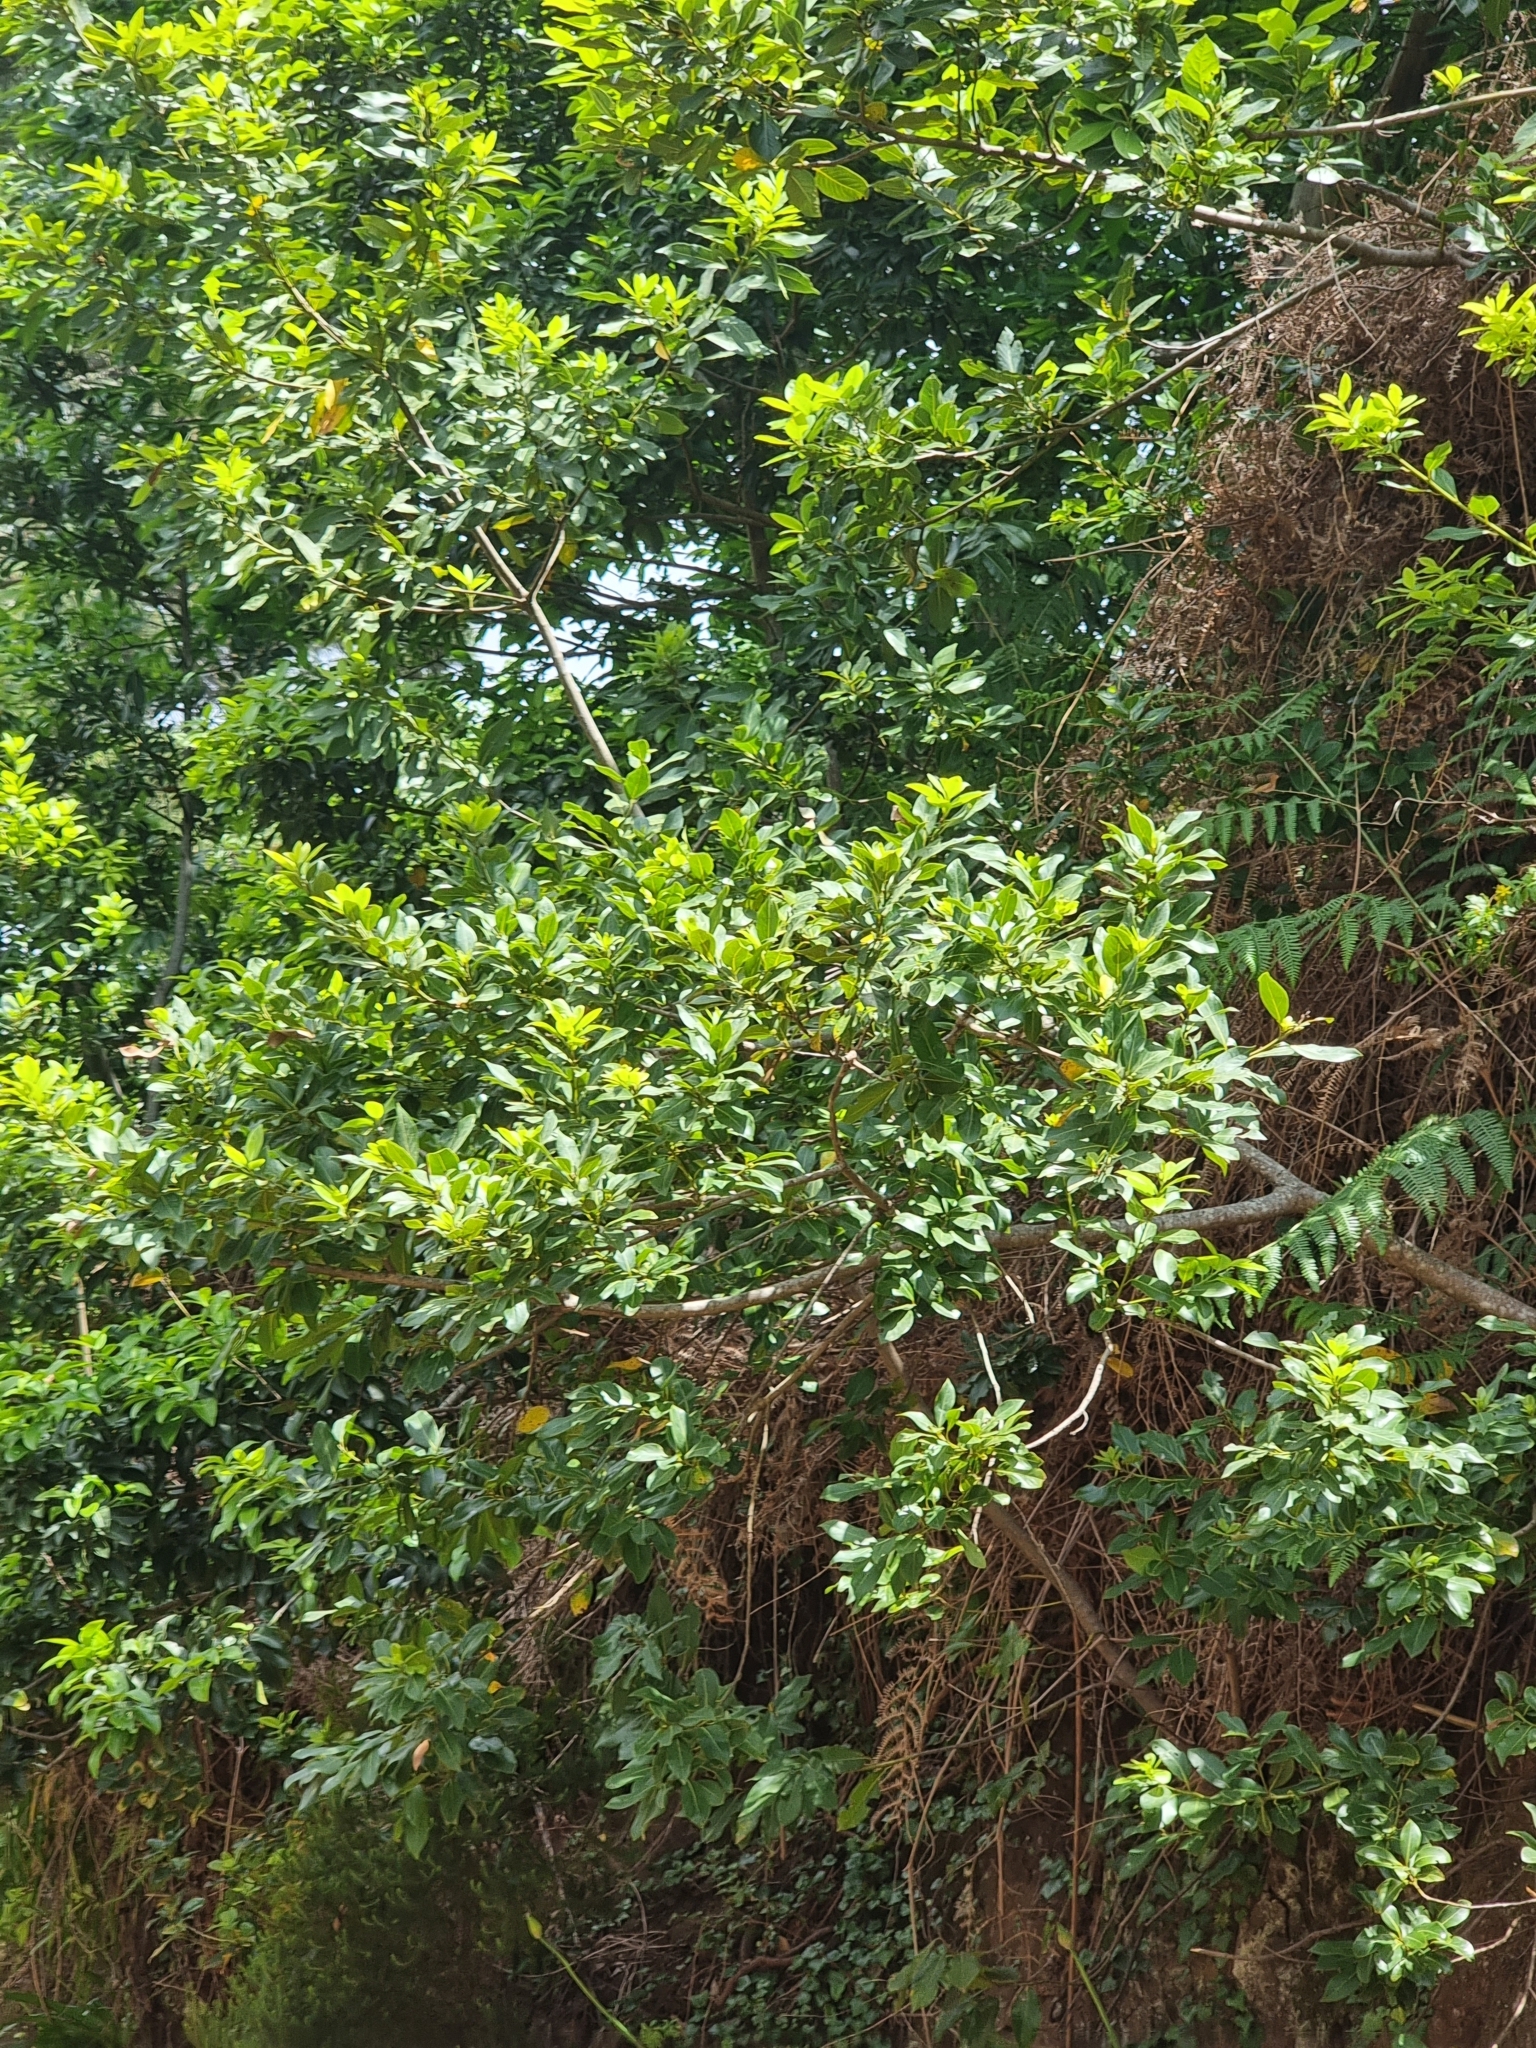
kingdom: Plantae
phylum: Tracheophyta
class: Magnoliopsida
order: Laurales
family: Lauraceae
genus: Laurus
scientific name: Laurus novocanariensis
